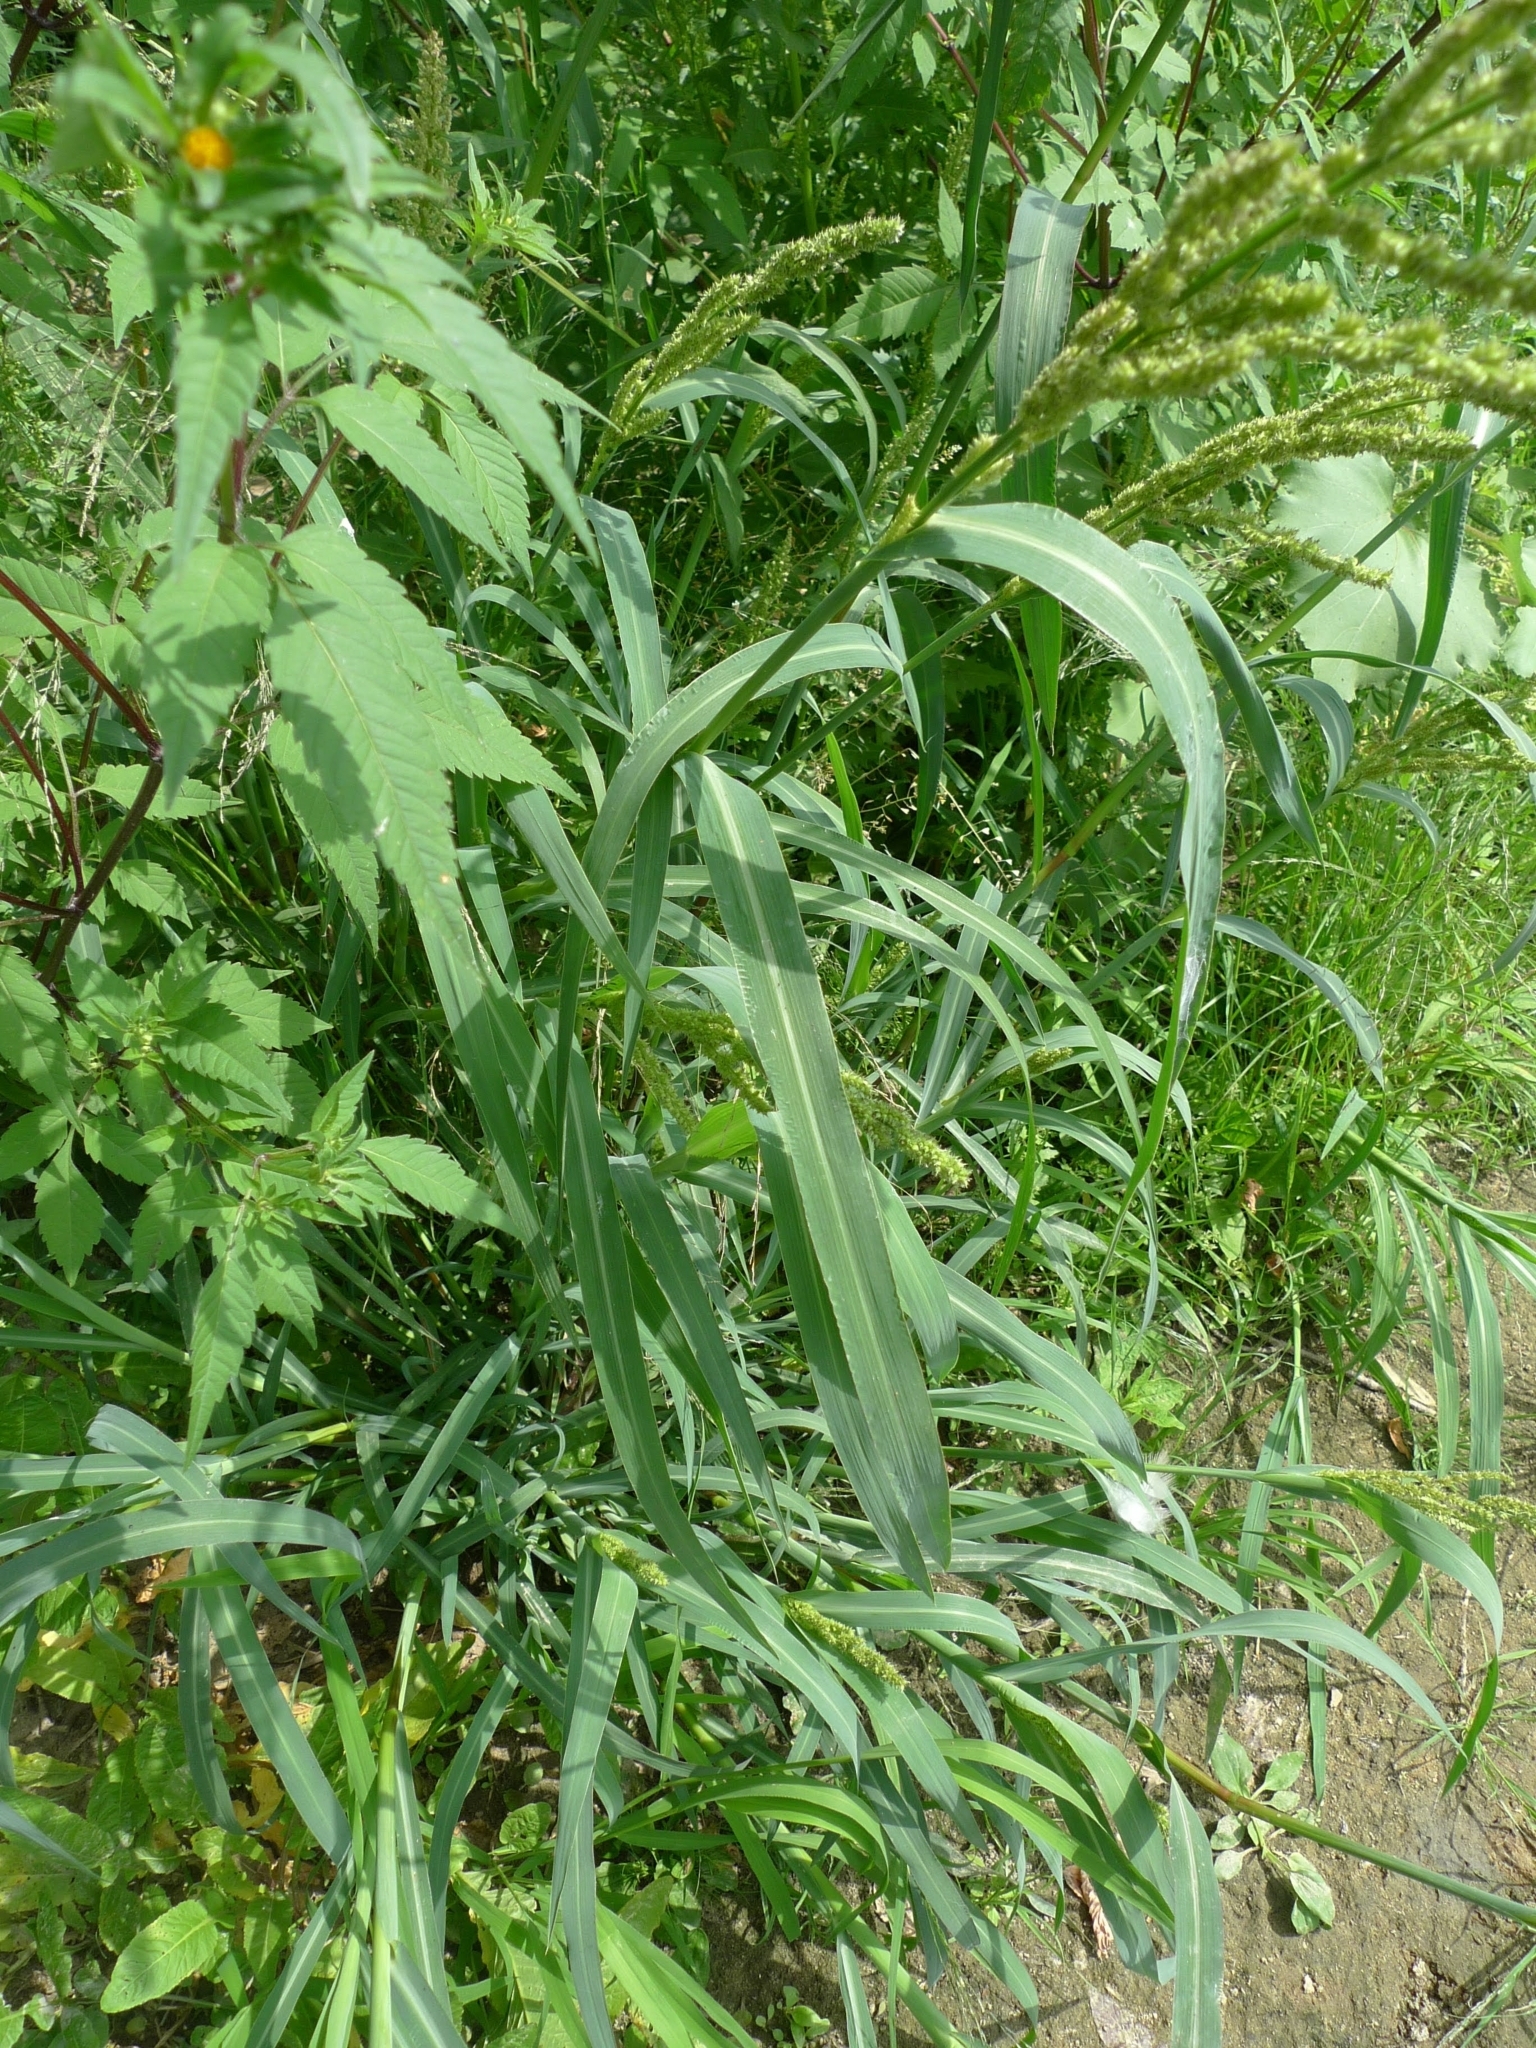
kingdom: Plantae
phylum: Tracheophyta
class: Liliopsida
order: Poales
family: Poaceae
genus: Echinochloa
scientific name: Echinochloa crus-galli
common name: Cockspur
